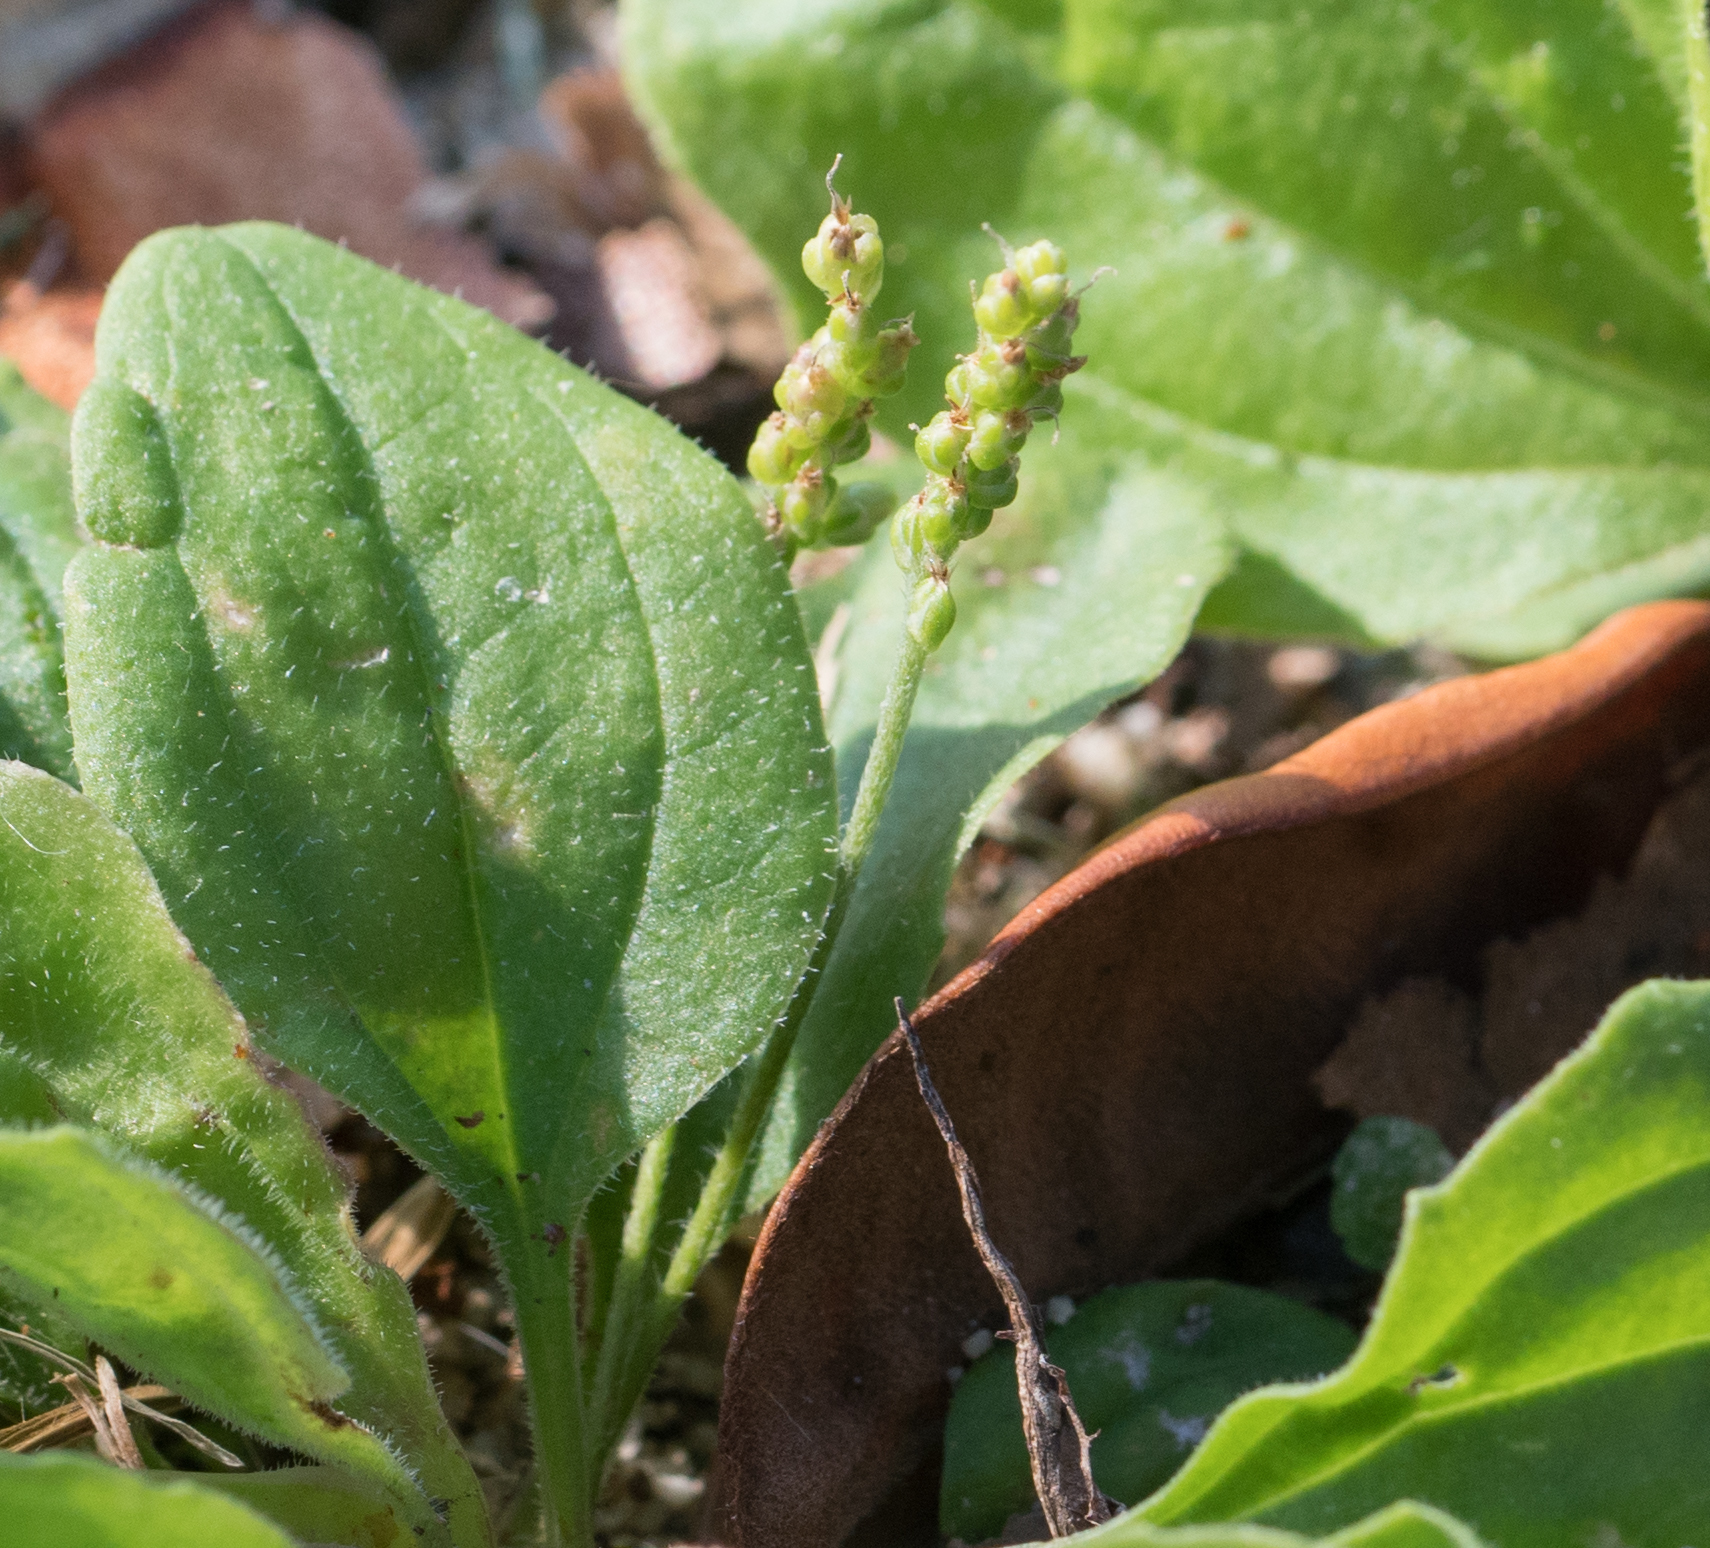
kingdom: Plantae
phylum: Tracheophyta
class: Magnoliopsida
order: Lamiales
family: Plantaginaceae
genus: Plantago
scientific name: Plantago major
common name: Common plantain
